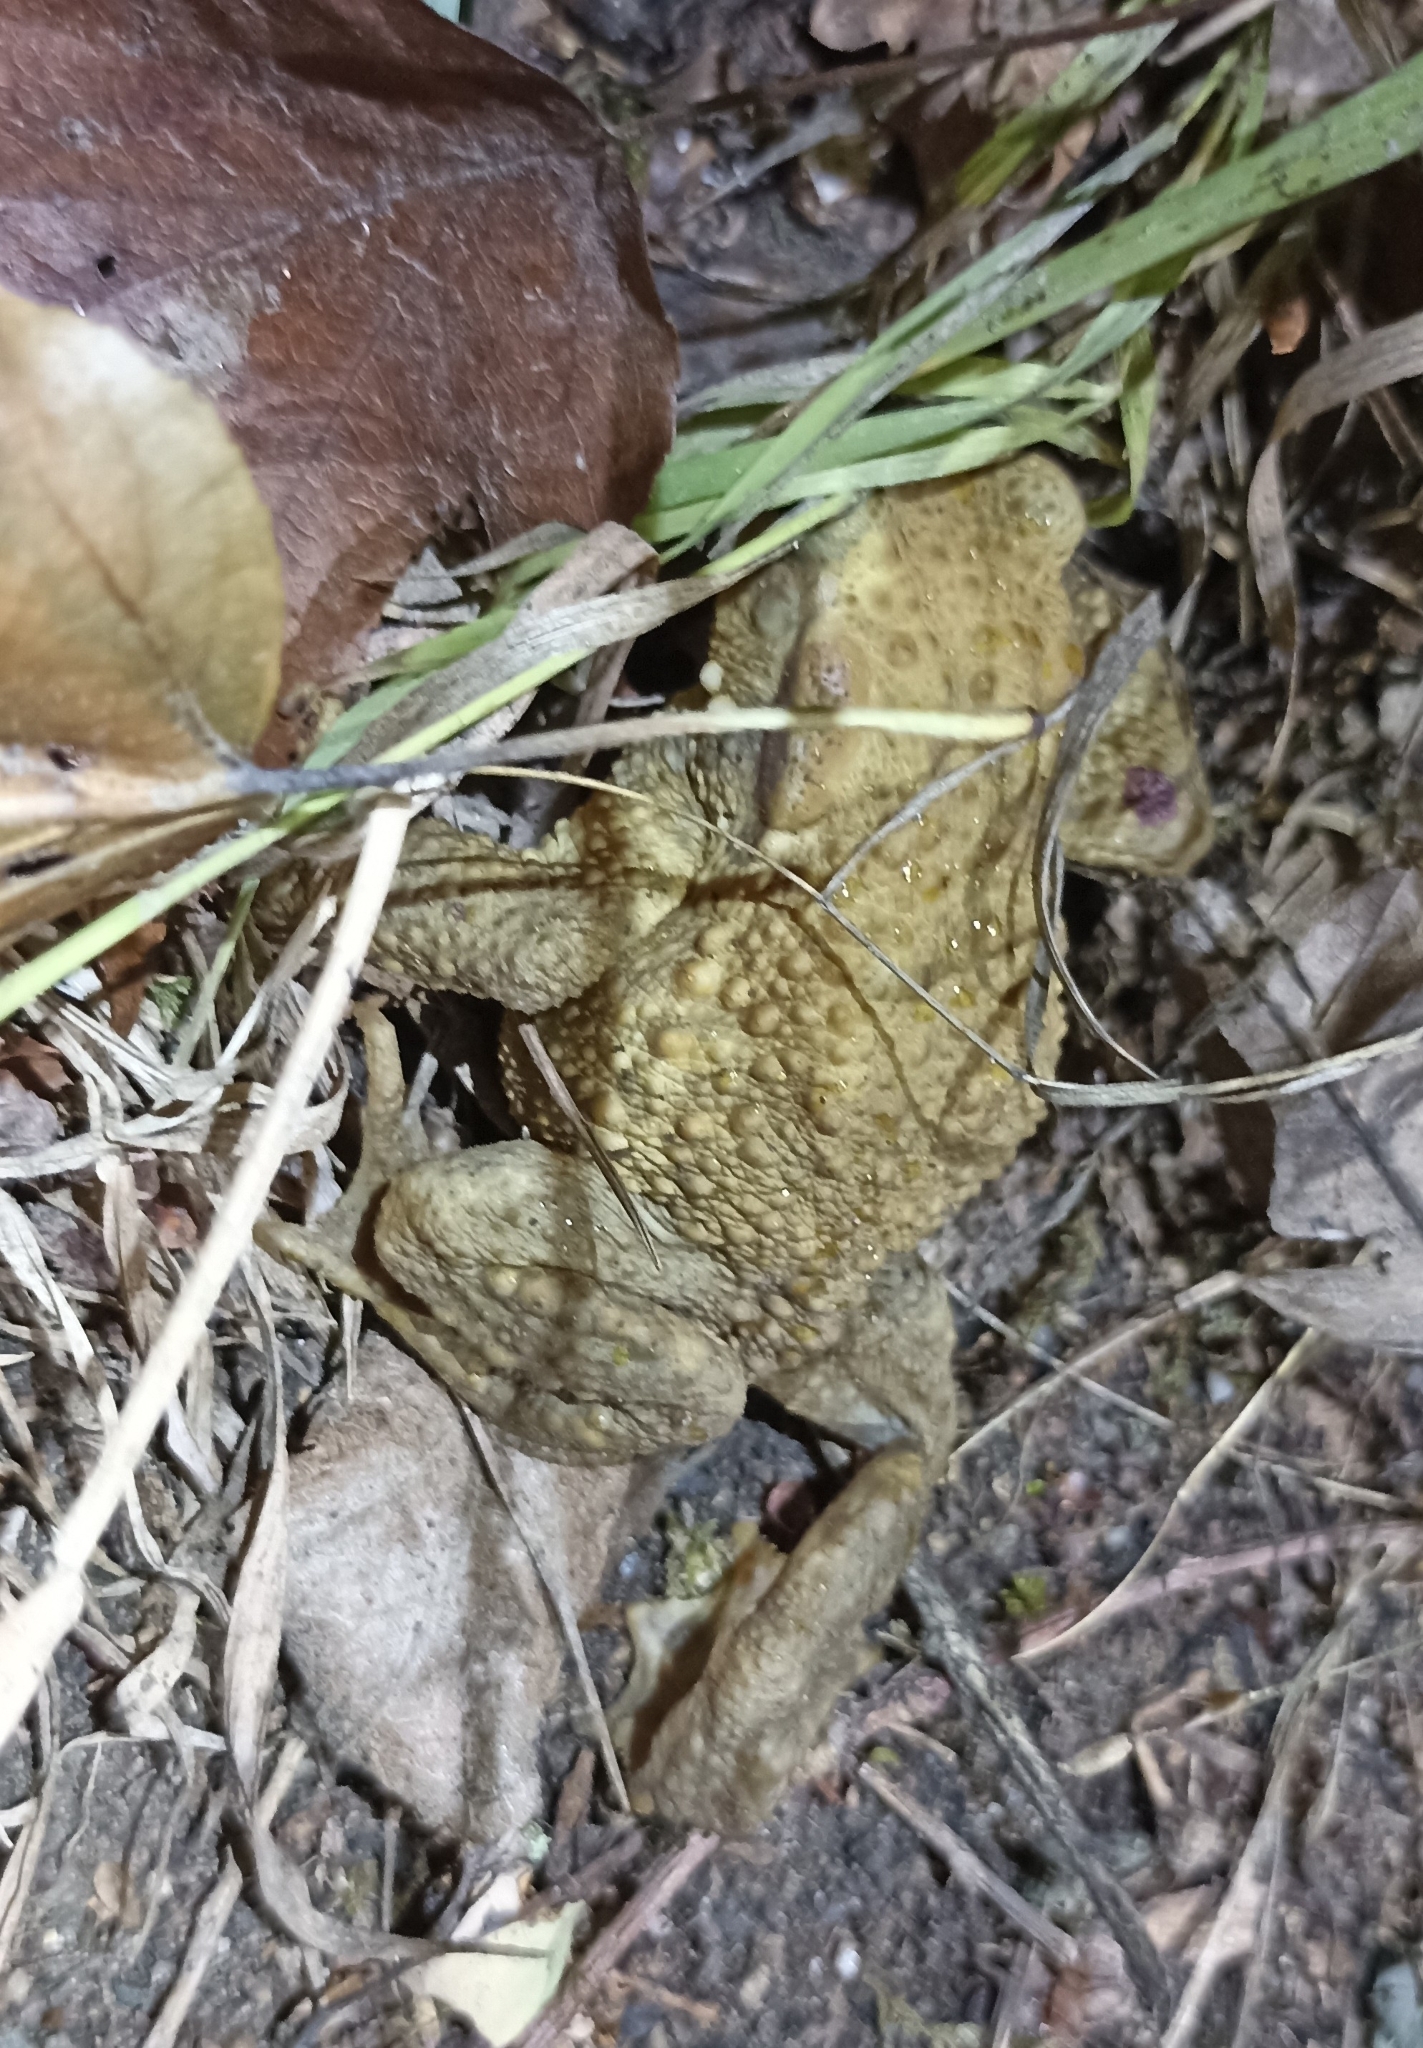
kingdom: Animalia
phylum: Chordata
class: Amphibia
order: Anura
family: Bufonidae
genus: Bufo
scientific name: Bufo spinosus
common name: Western common toad
